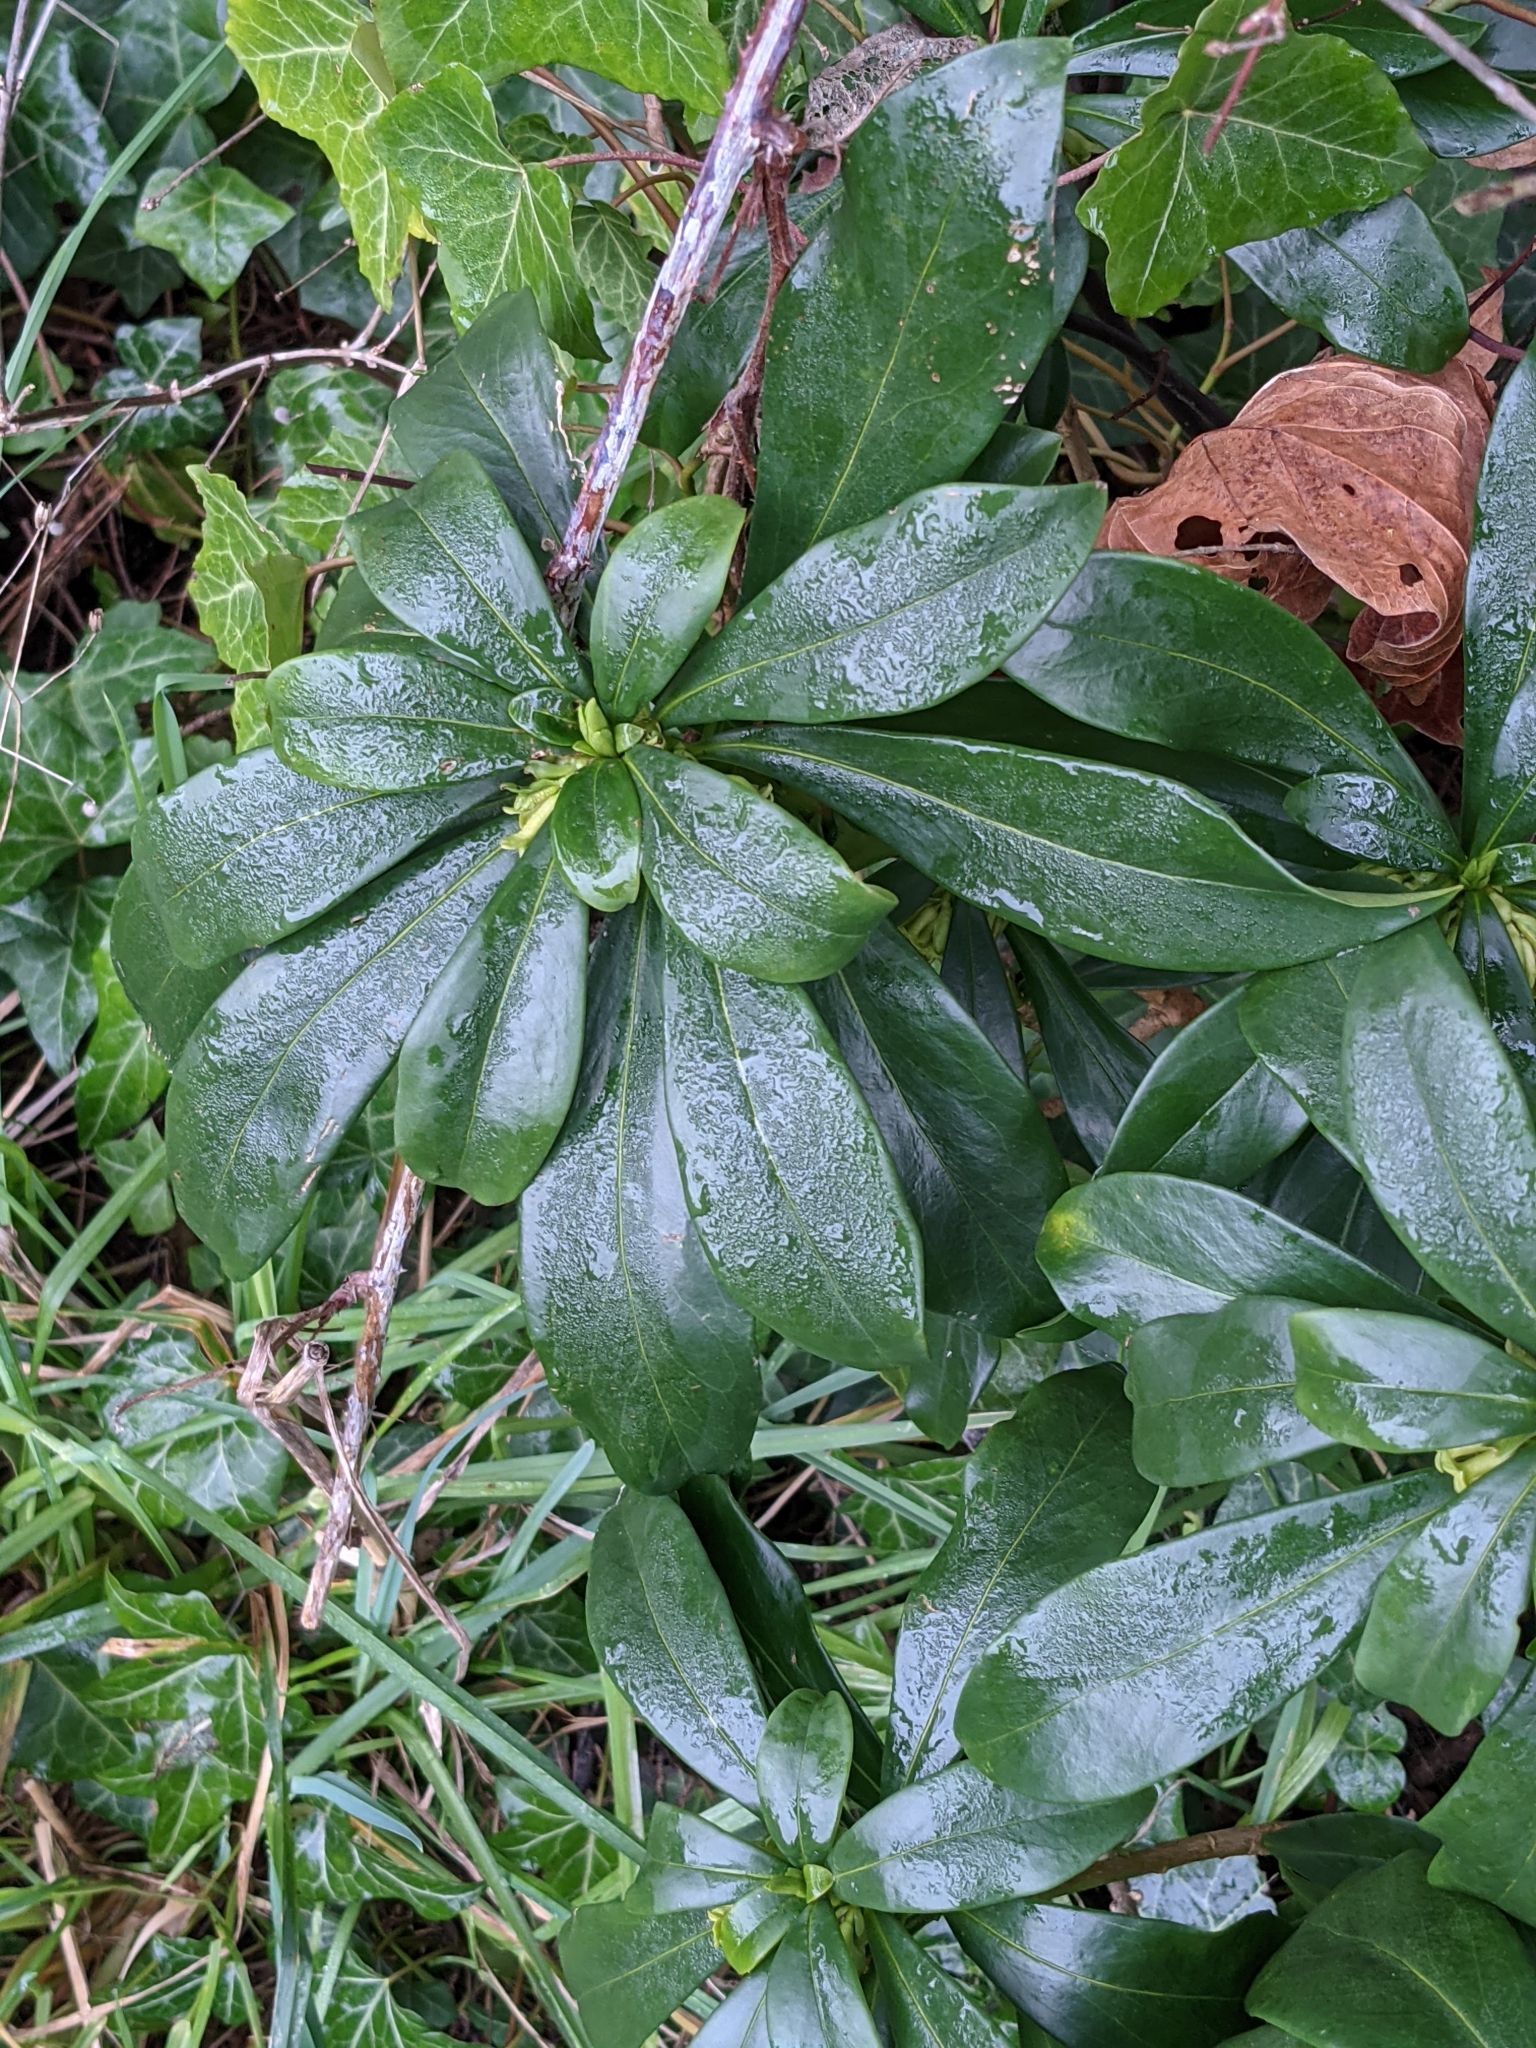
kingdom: Plantae
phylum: Tracheophyta
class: Magnoliopsida
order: Malvales
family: Thymelaeaceae
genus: Daphne
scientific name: Daphne laureola
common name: Spurge-laurel
